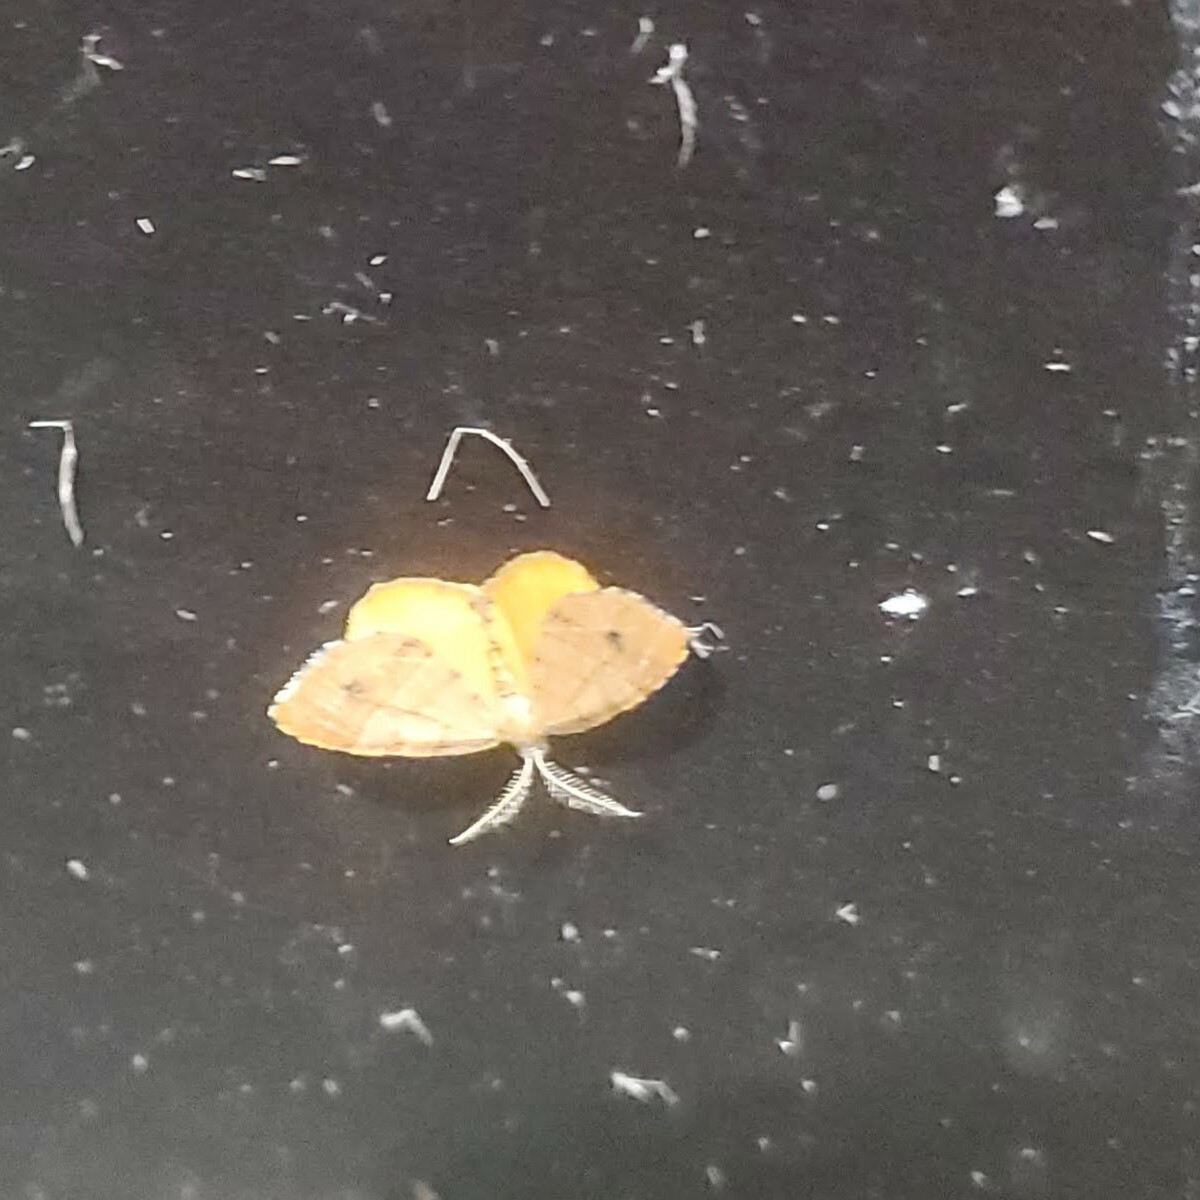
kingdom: Animalia
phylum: Arthropoda
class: Insecta
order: Lepidoptera
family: Geometridae
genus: Mellilla
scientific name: Mellilla xanthometata
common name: Orange wing moth
